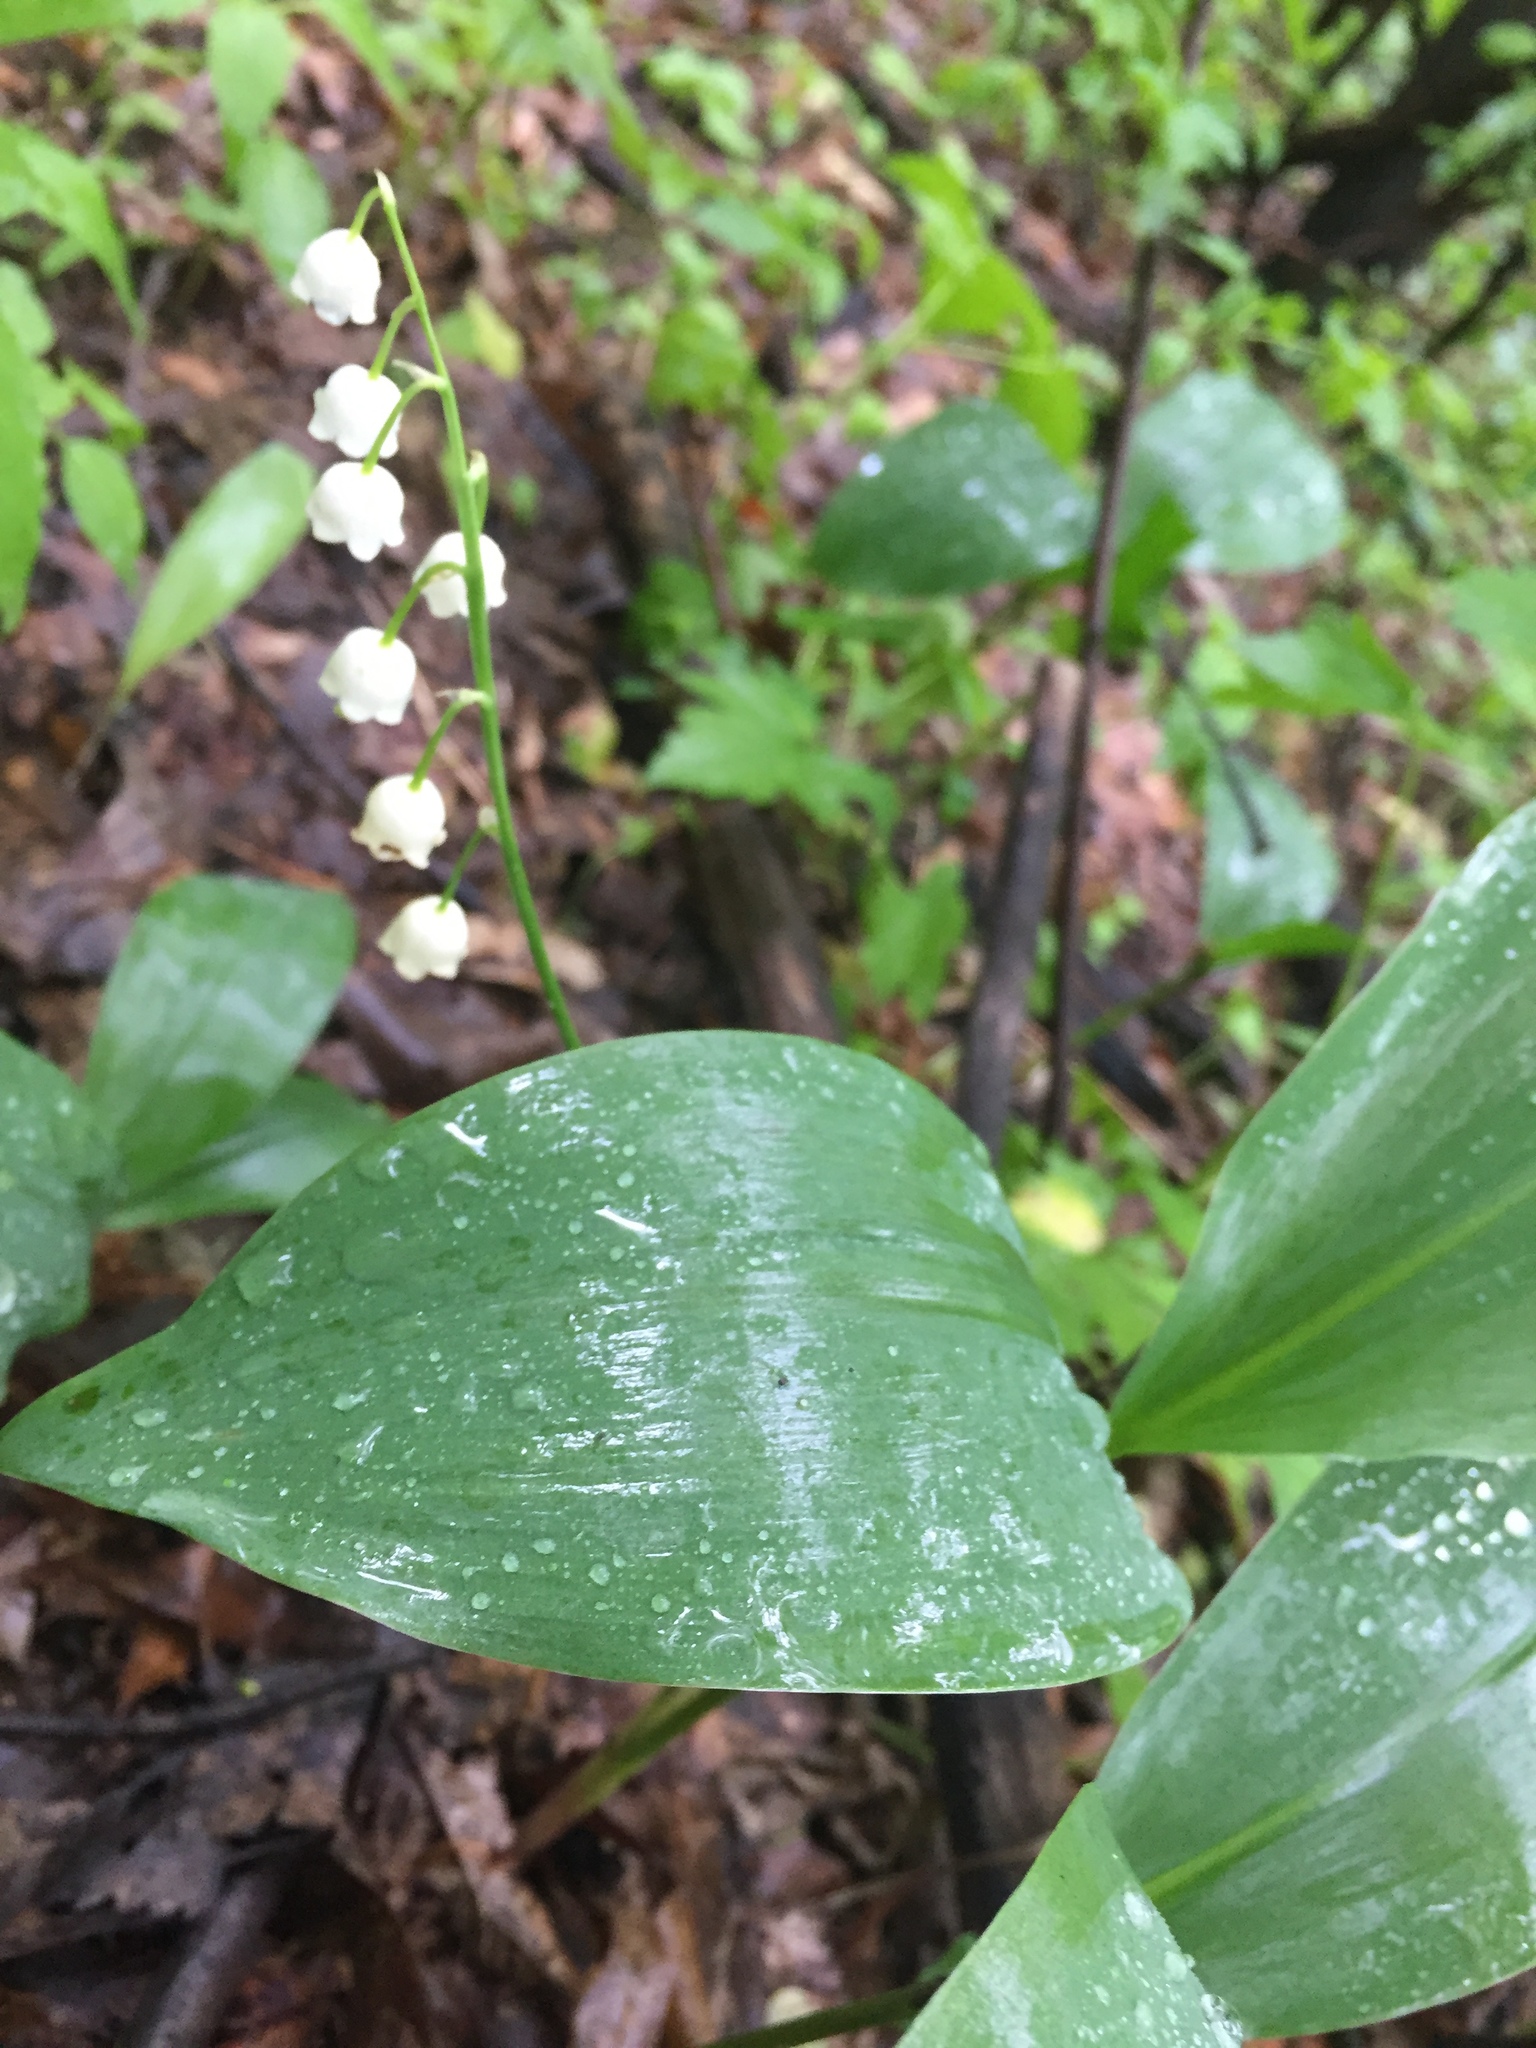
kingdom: Plantae
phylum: Tracheophyta
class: Liliopsida
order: Asparagales
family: Asparagaceae
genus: Convallaria
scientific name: Convallaria majalis
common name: Lily-of-the-valley
